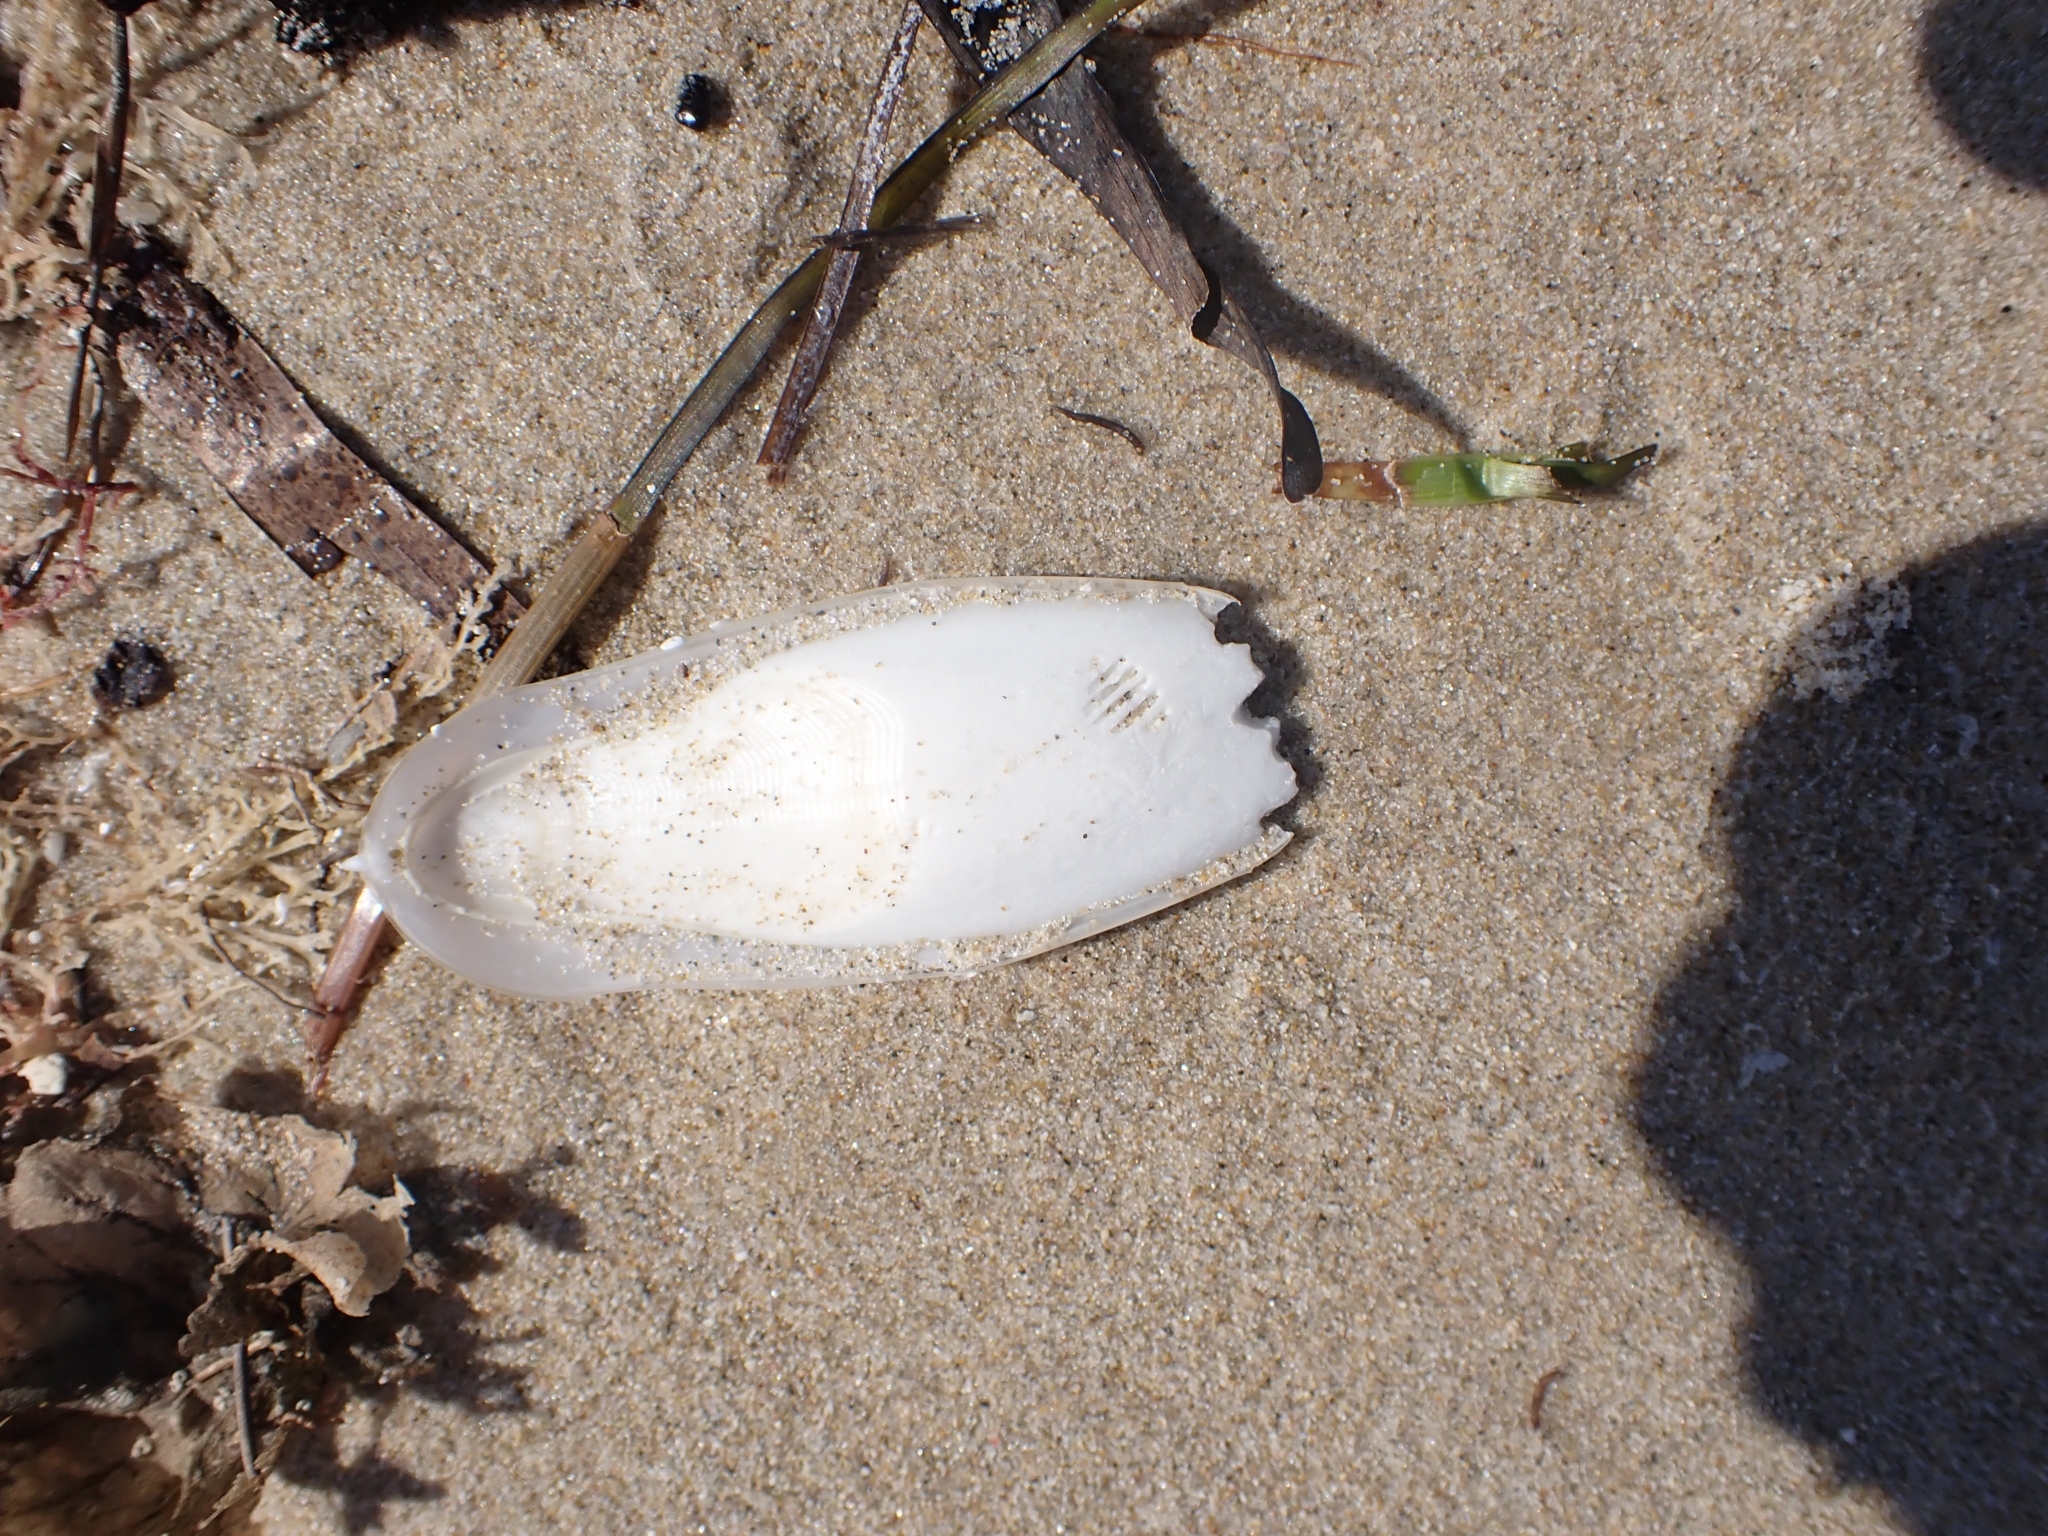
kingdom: Animalia
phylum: Mollusca
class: Cephalopoda
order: Sepiida
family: Sepiidae
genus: Sepia
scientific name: Sepia officinalis
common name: Common cuttlefish
